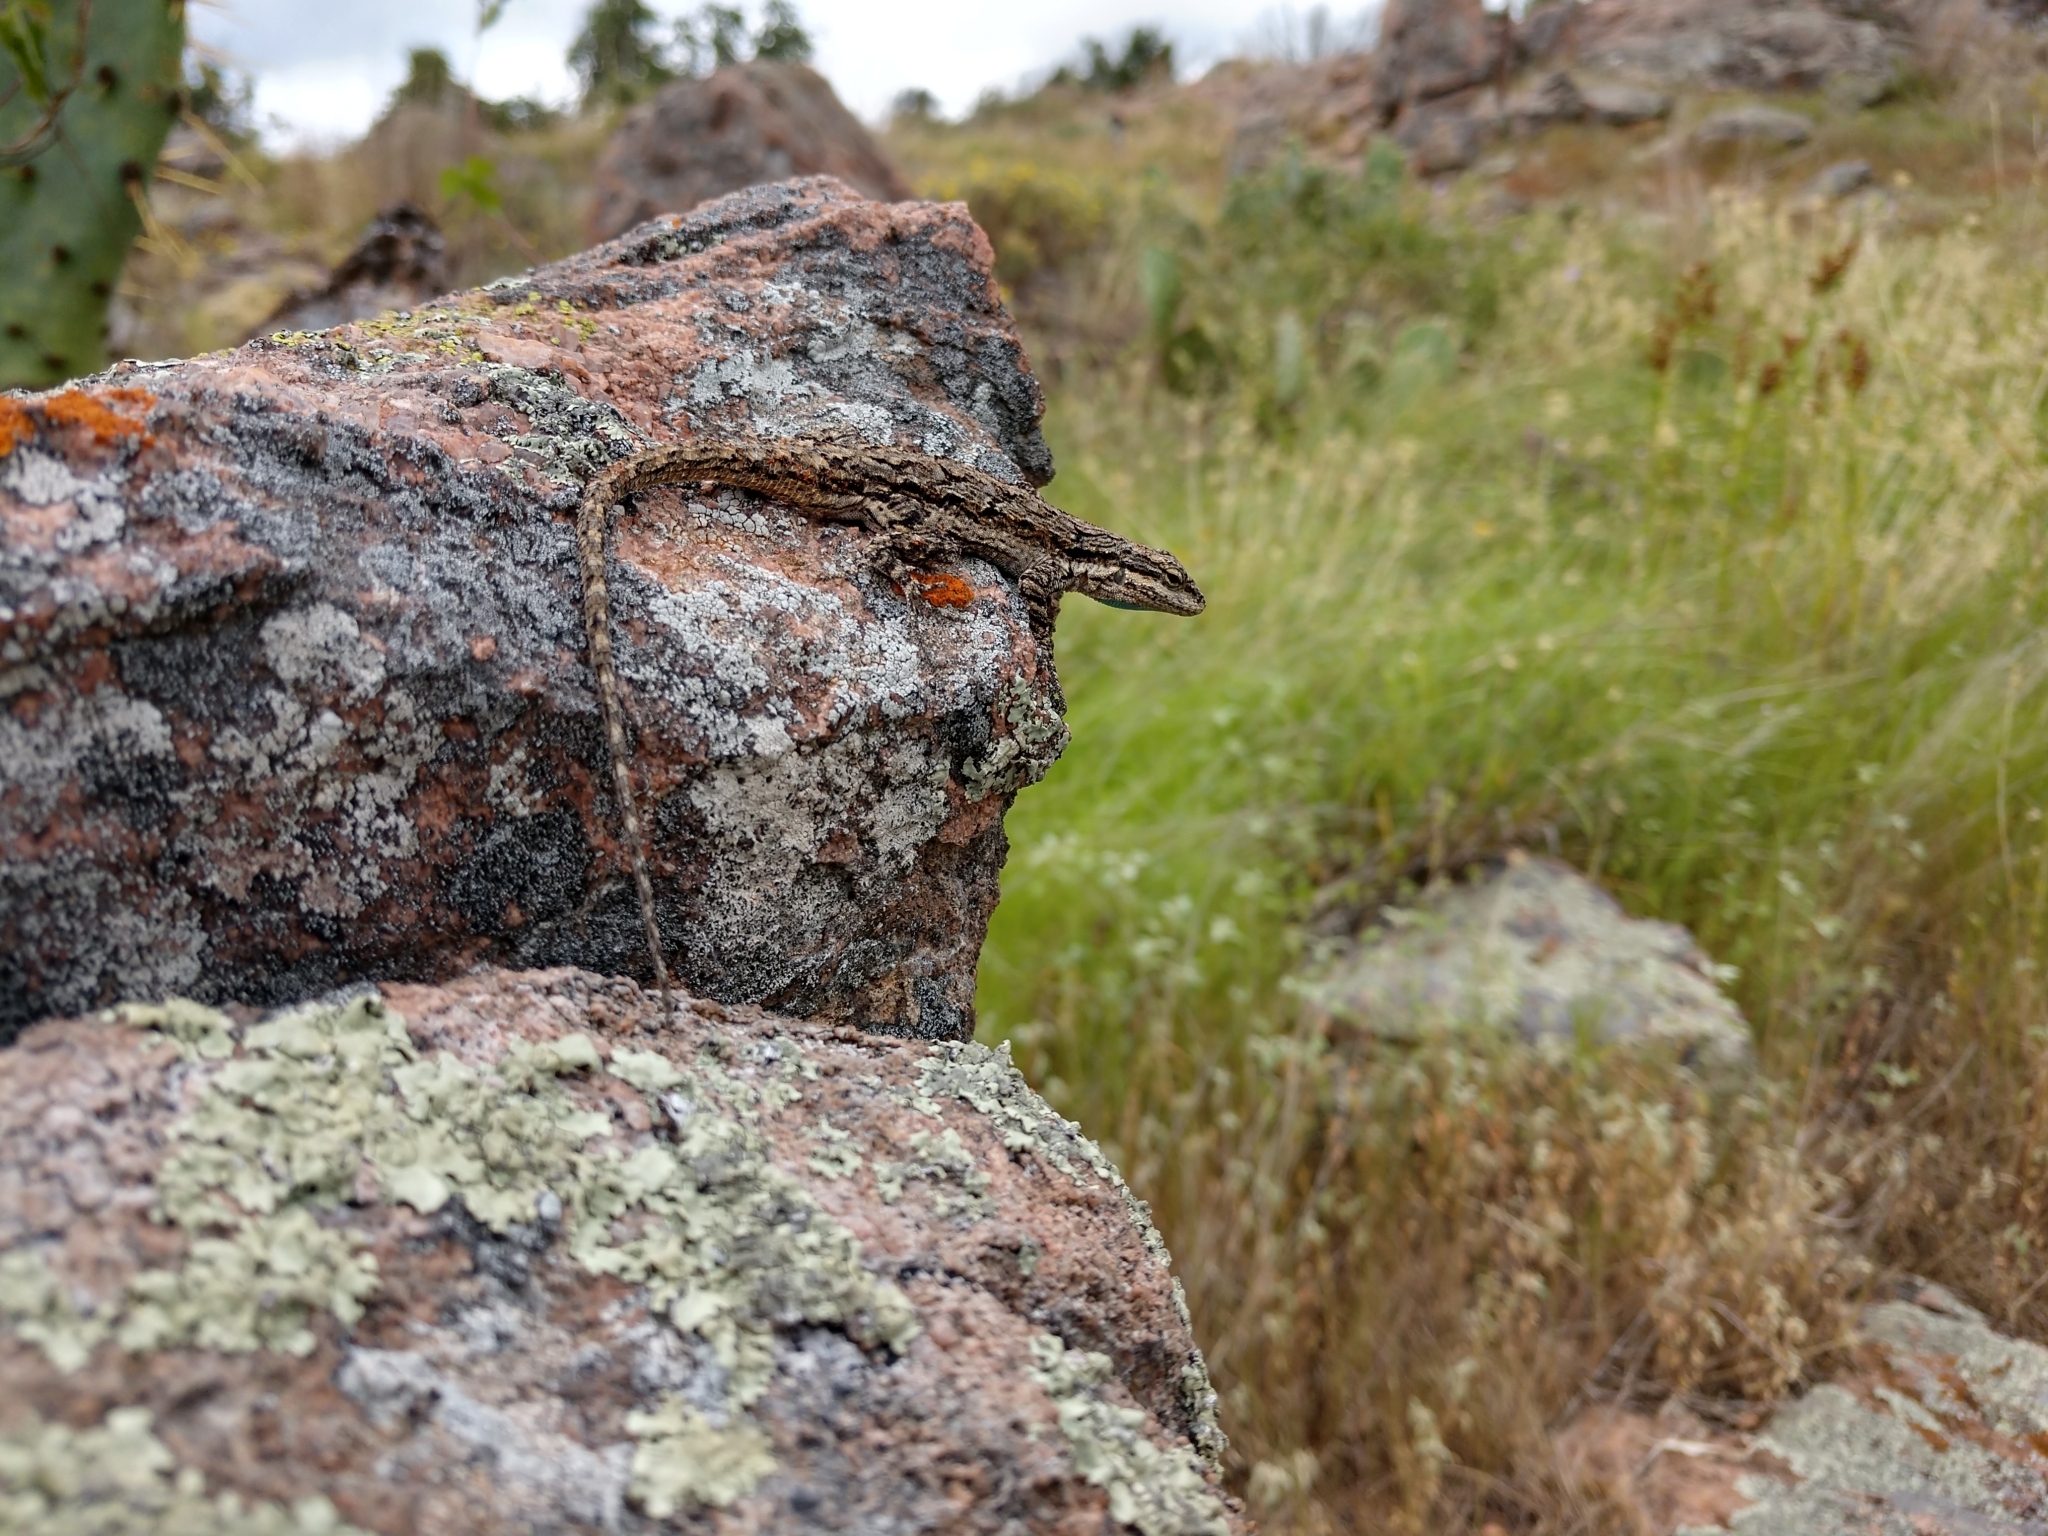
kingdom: Animalia
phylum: Chordata
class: Squamata
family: Phrynosomatidae
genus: Urosaurus
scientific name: Urosaurus ornatus
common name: Ornate tree lizard
